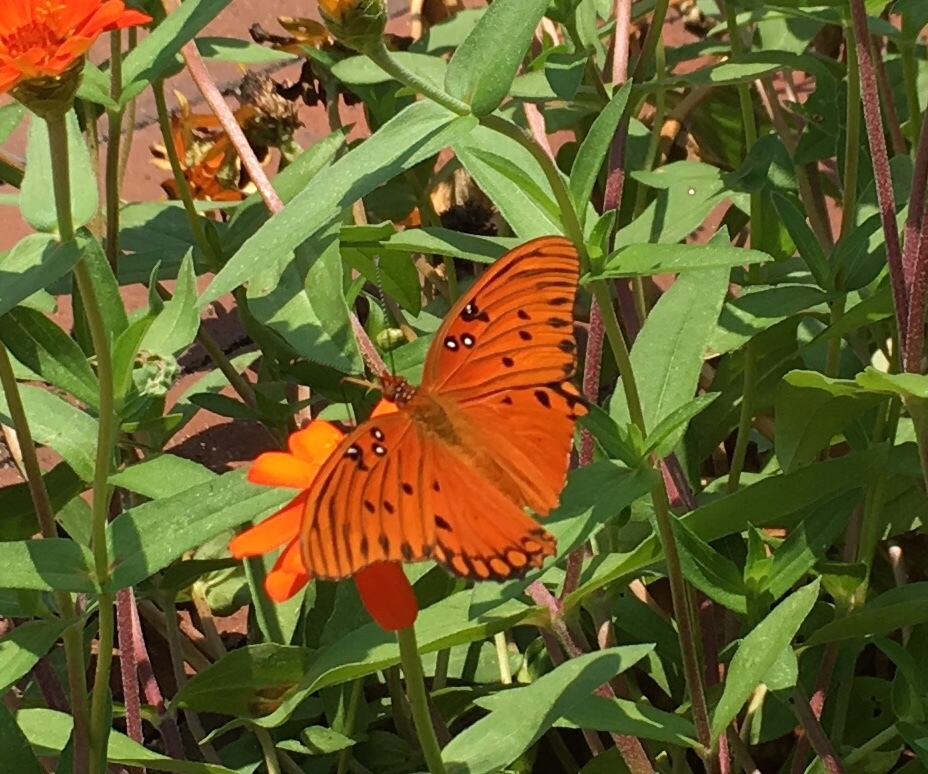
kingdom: Animalia
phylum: Arthropoda
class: Insecta
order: Lepidoptera
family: Nymphalidae
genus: Dione
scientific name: Dione vanillae
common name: Gulf fritillary
